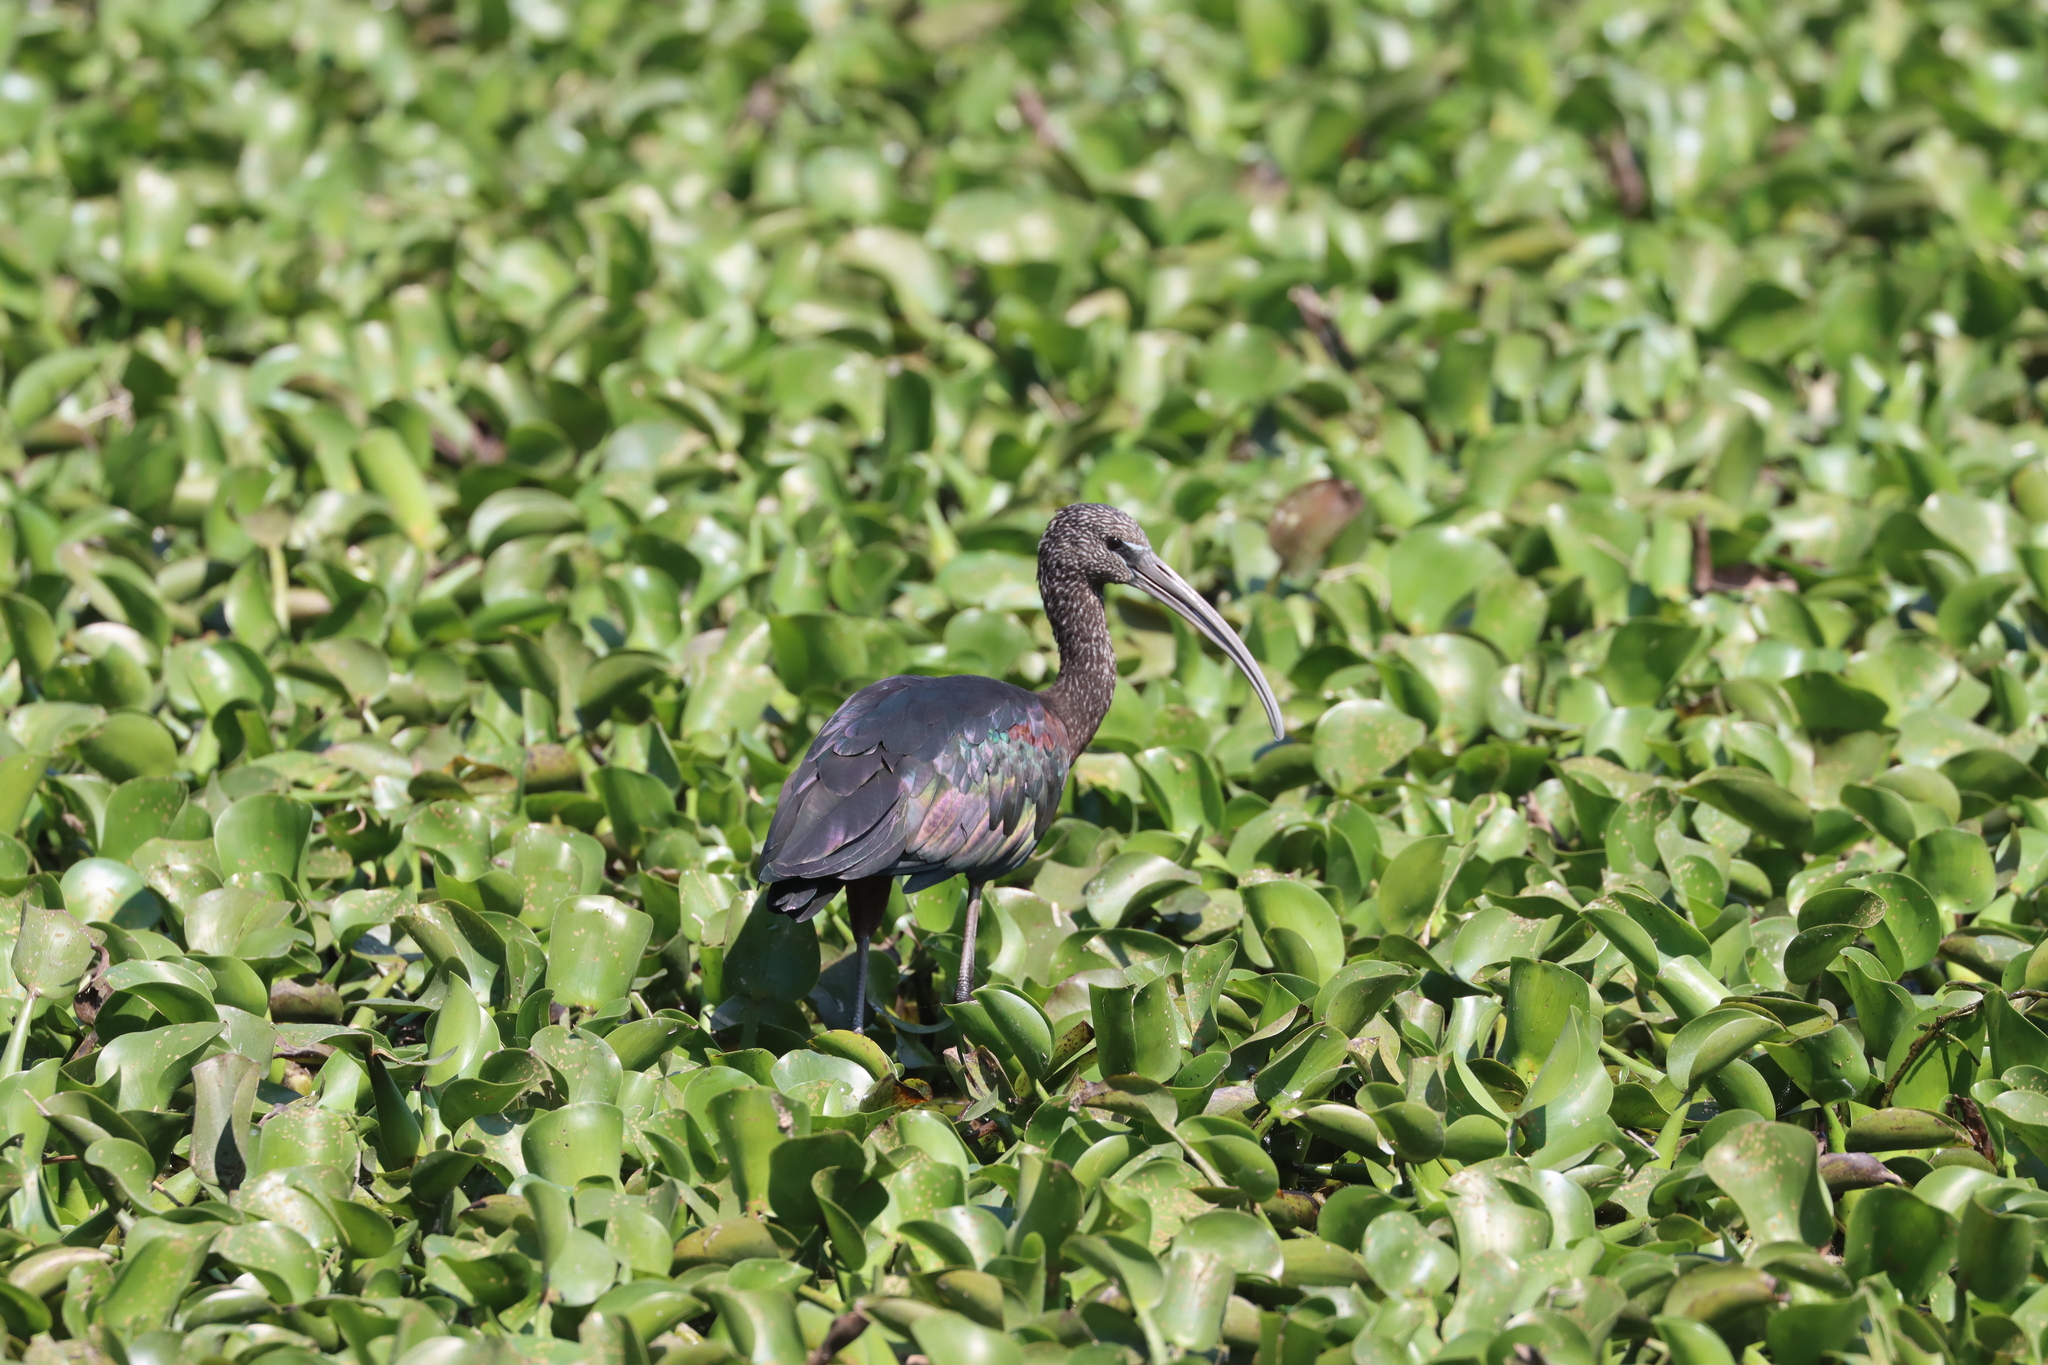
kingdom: Animalia
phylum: Chordata
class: Aves
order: Pelecaniformes
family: Threskiornithidae
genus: Plegadis
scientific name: Plegadis falcinellus
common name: Glossy ibis
